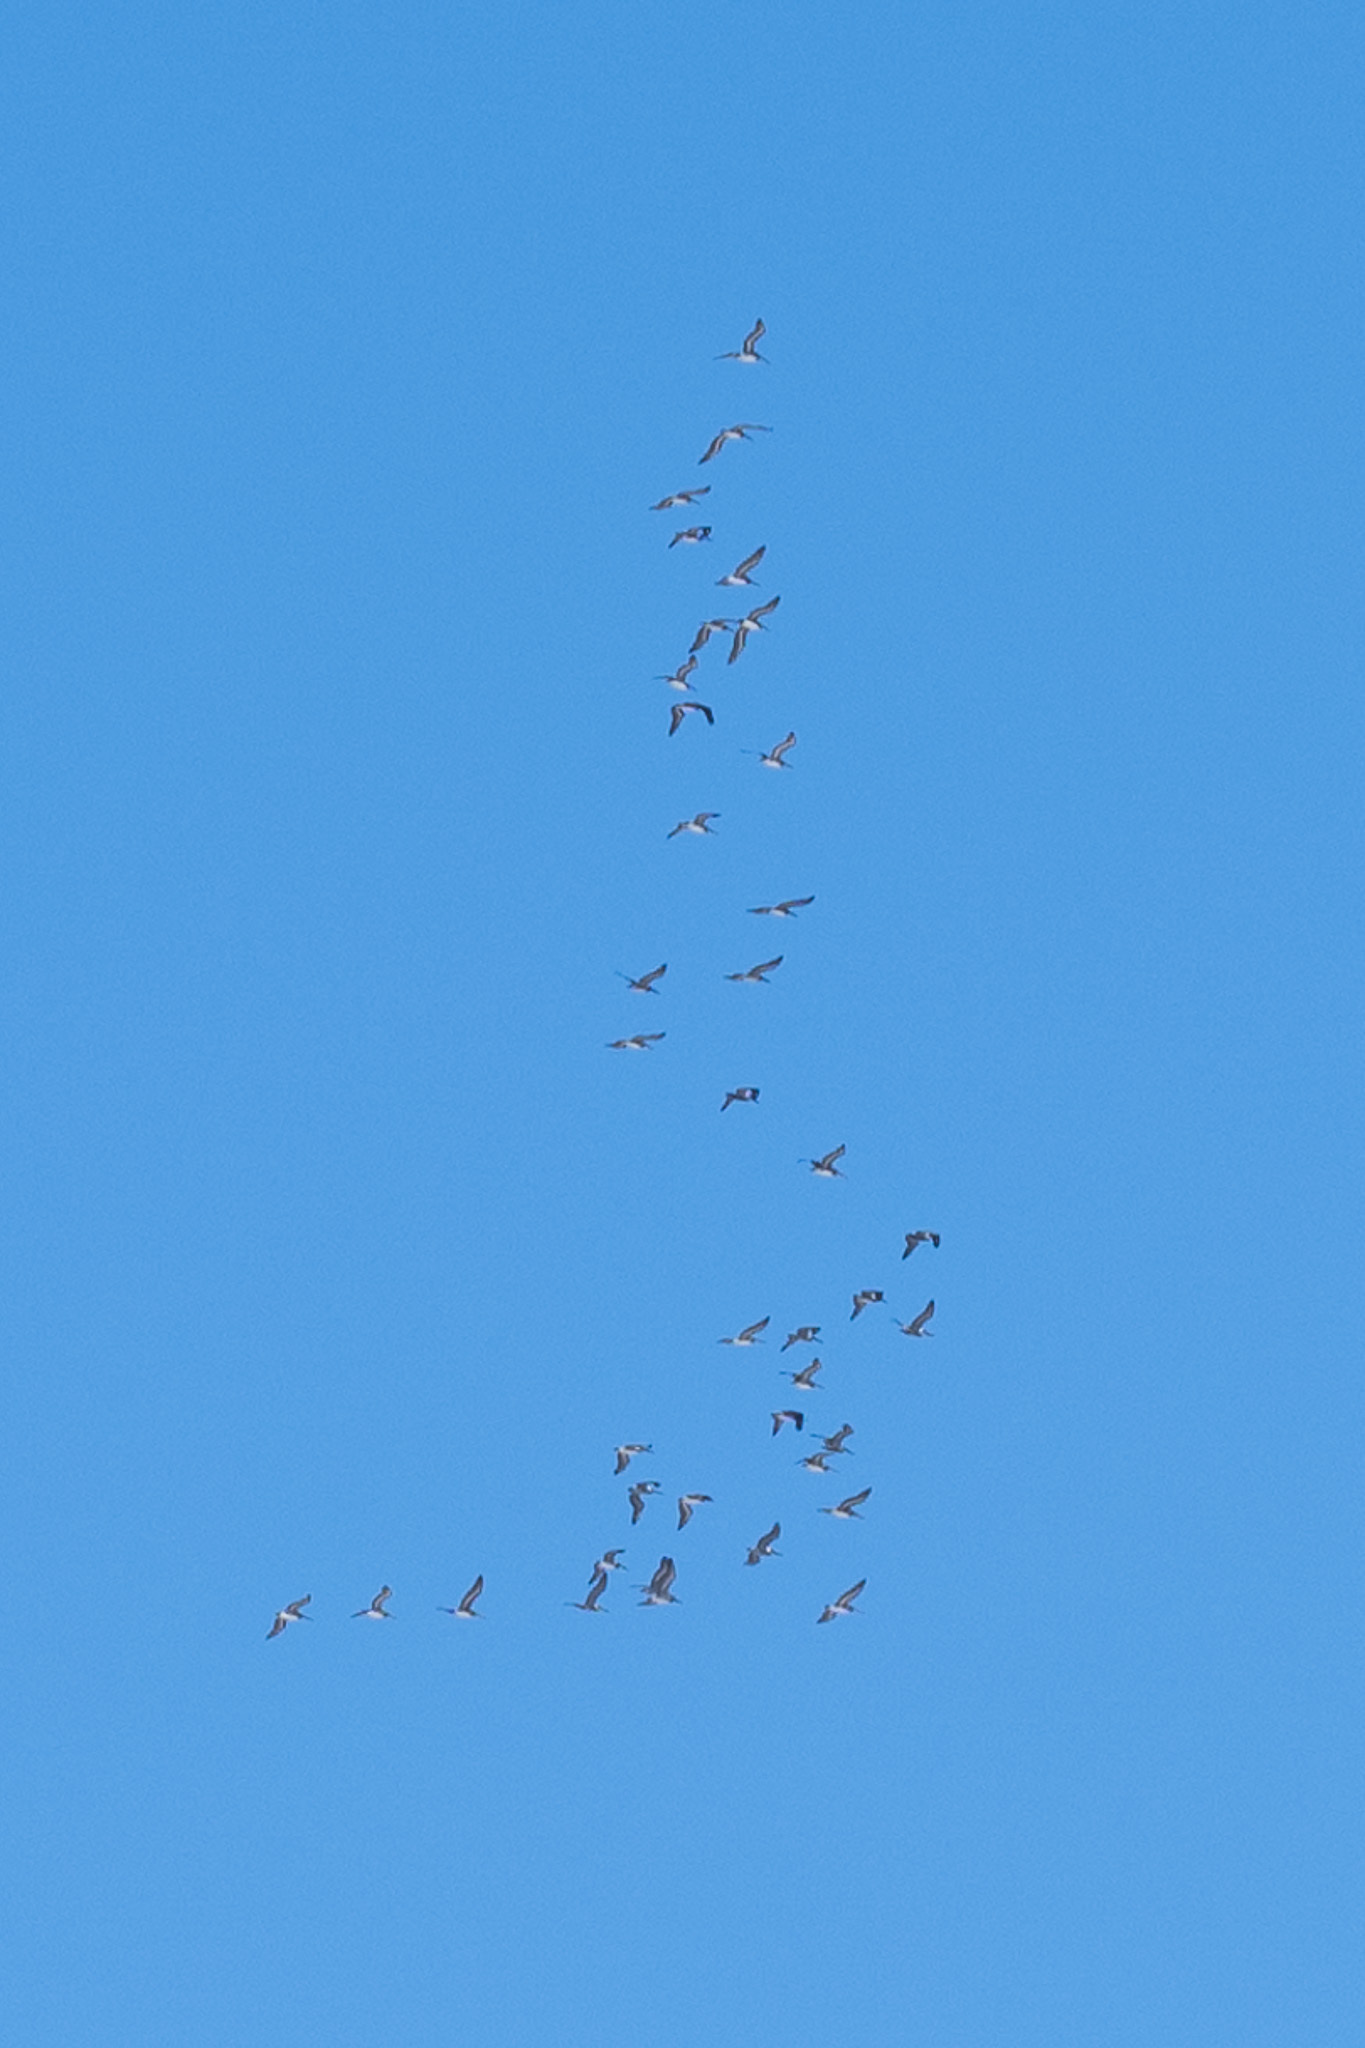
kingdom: Animalia
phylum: Chordata
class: Aves
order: Anseriformes
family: Anatidae
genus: Branta
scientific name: Branta canadensis
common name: Canada goose
